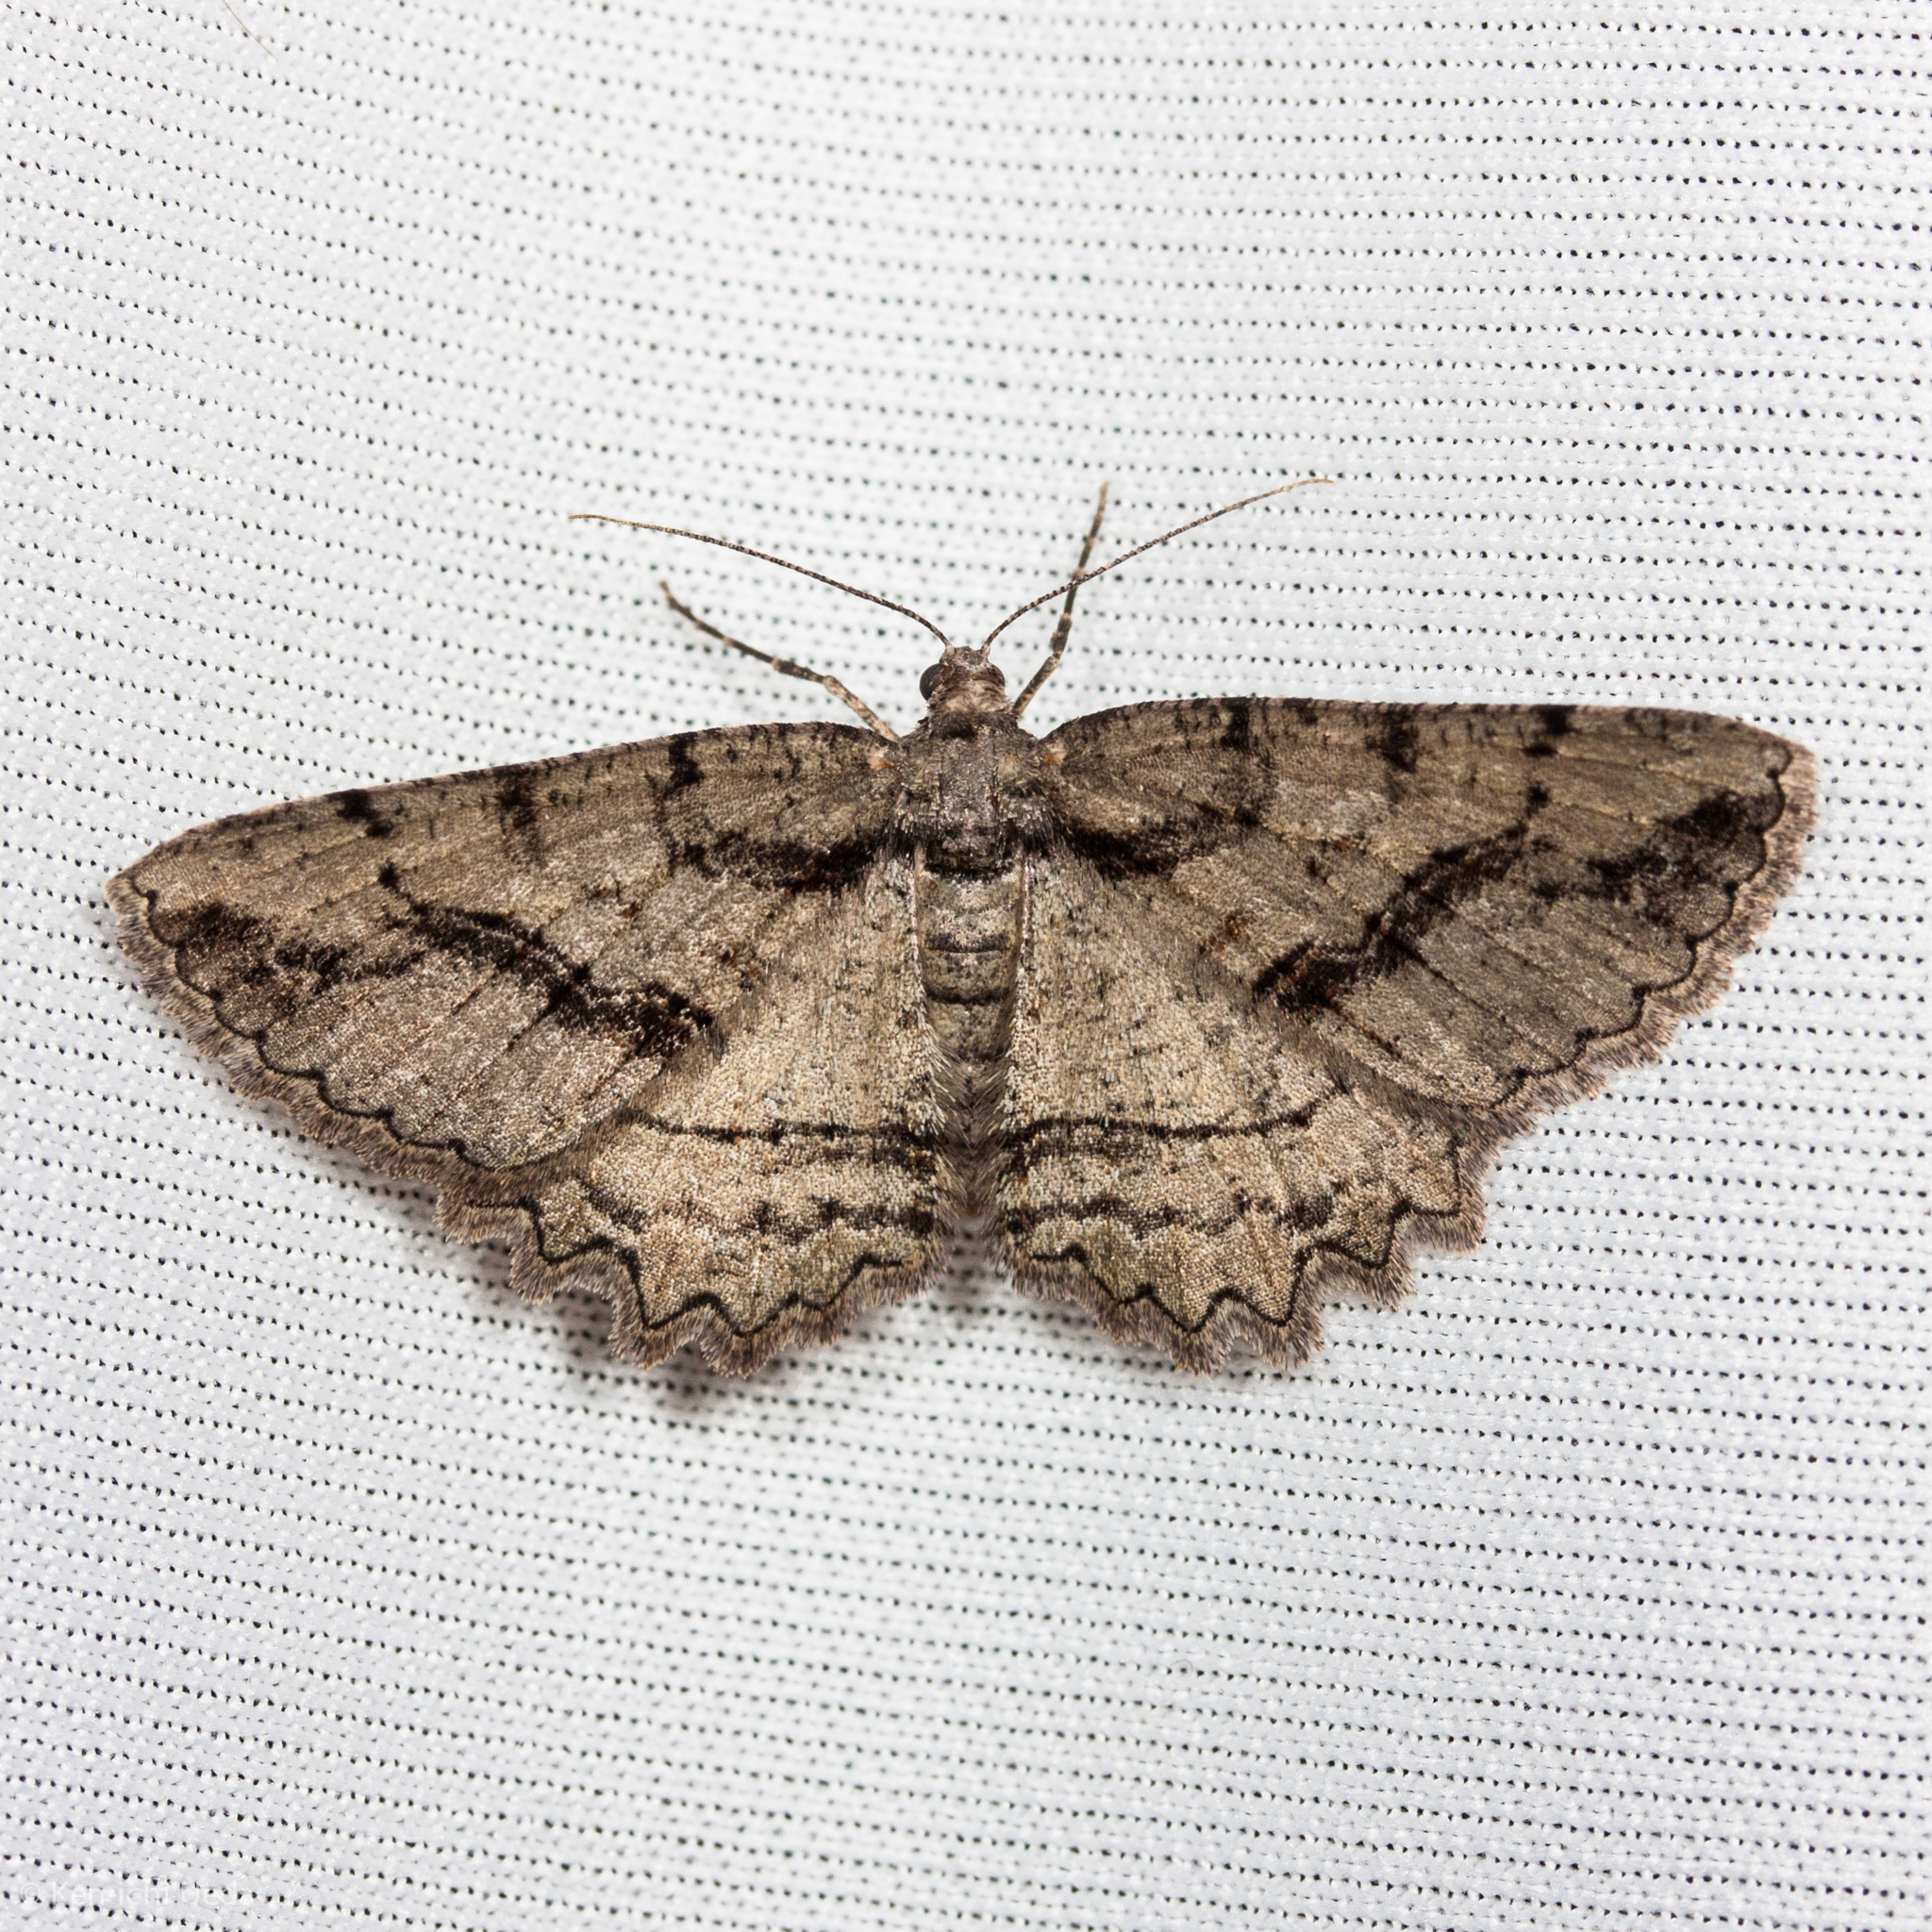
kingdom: Animalia
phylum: Arthropoda
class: Insecta
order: Lepidoptera
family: Geometridae
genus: Neoalcis
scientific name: Neoalcis californiaria
